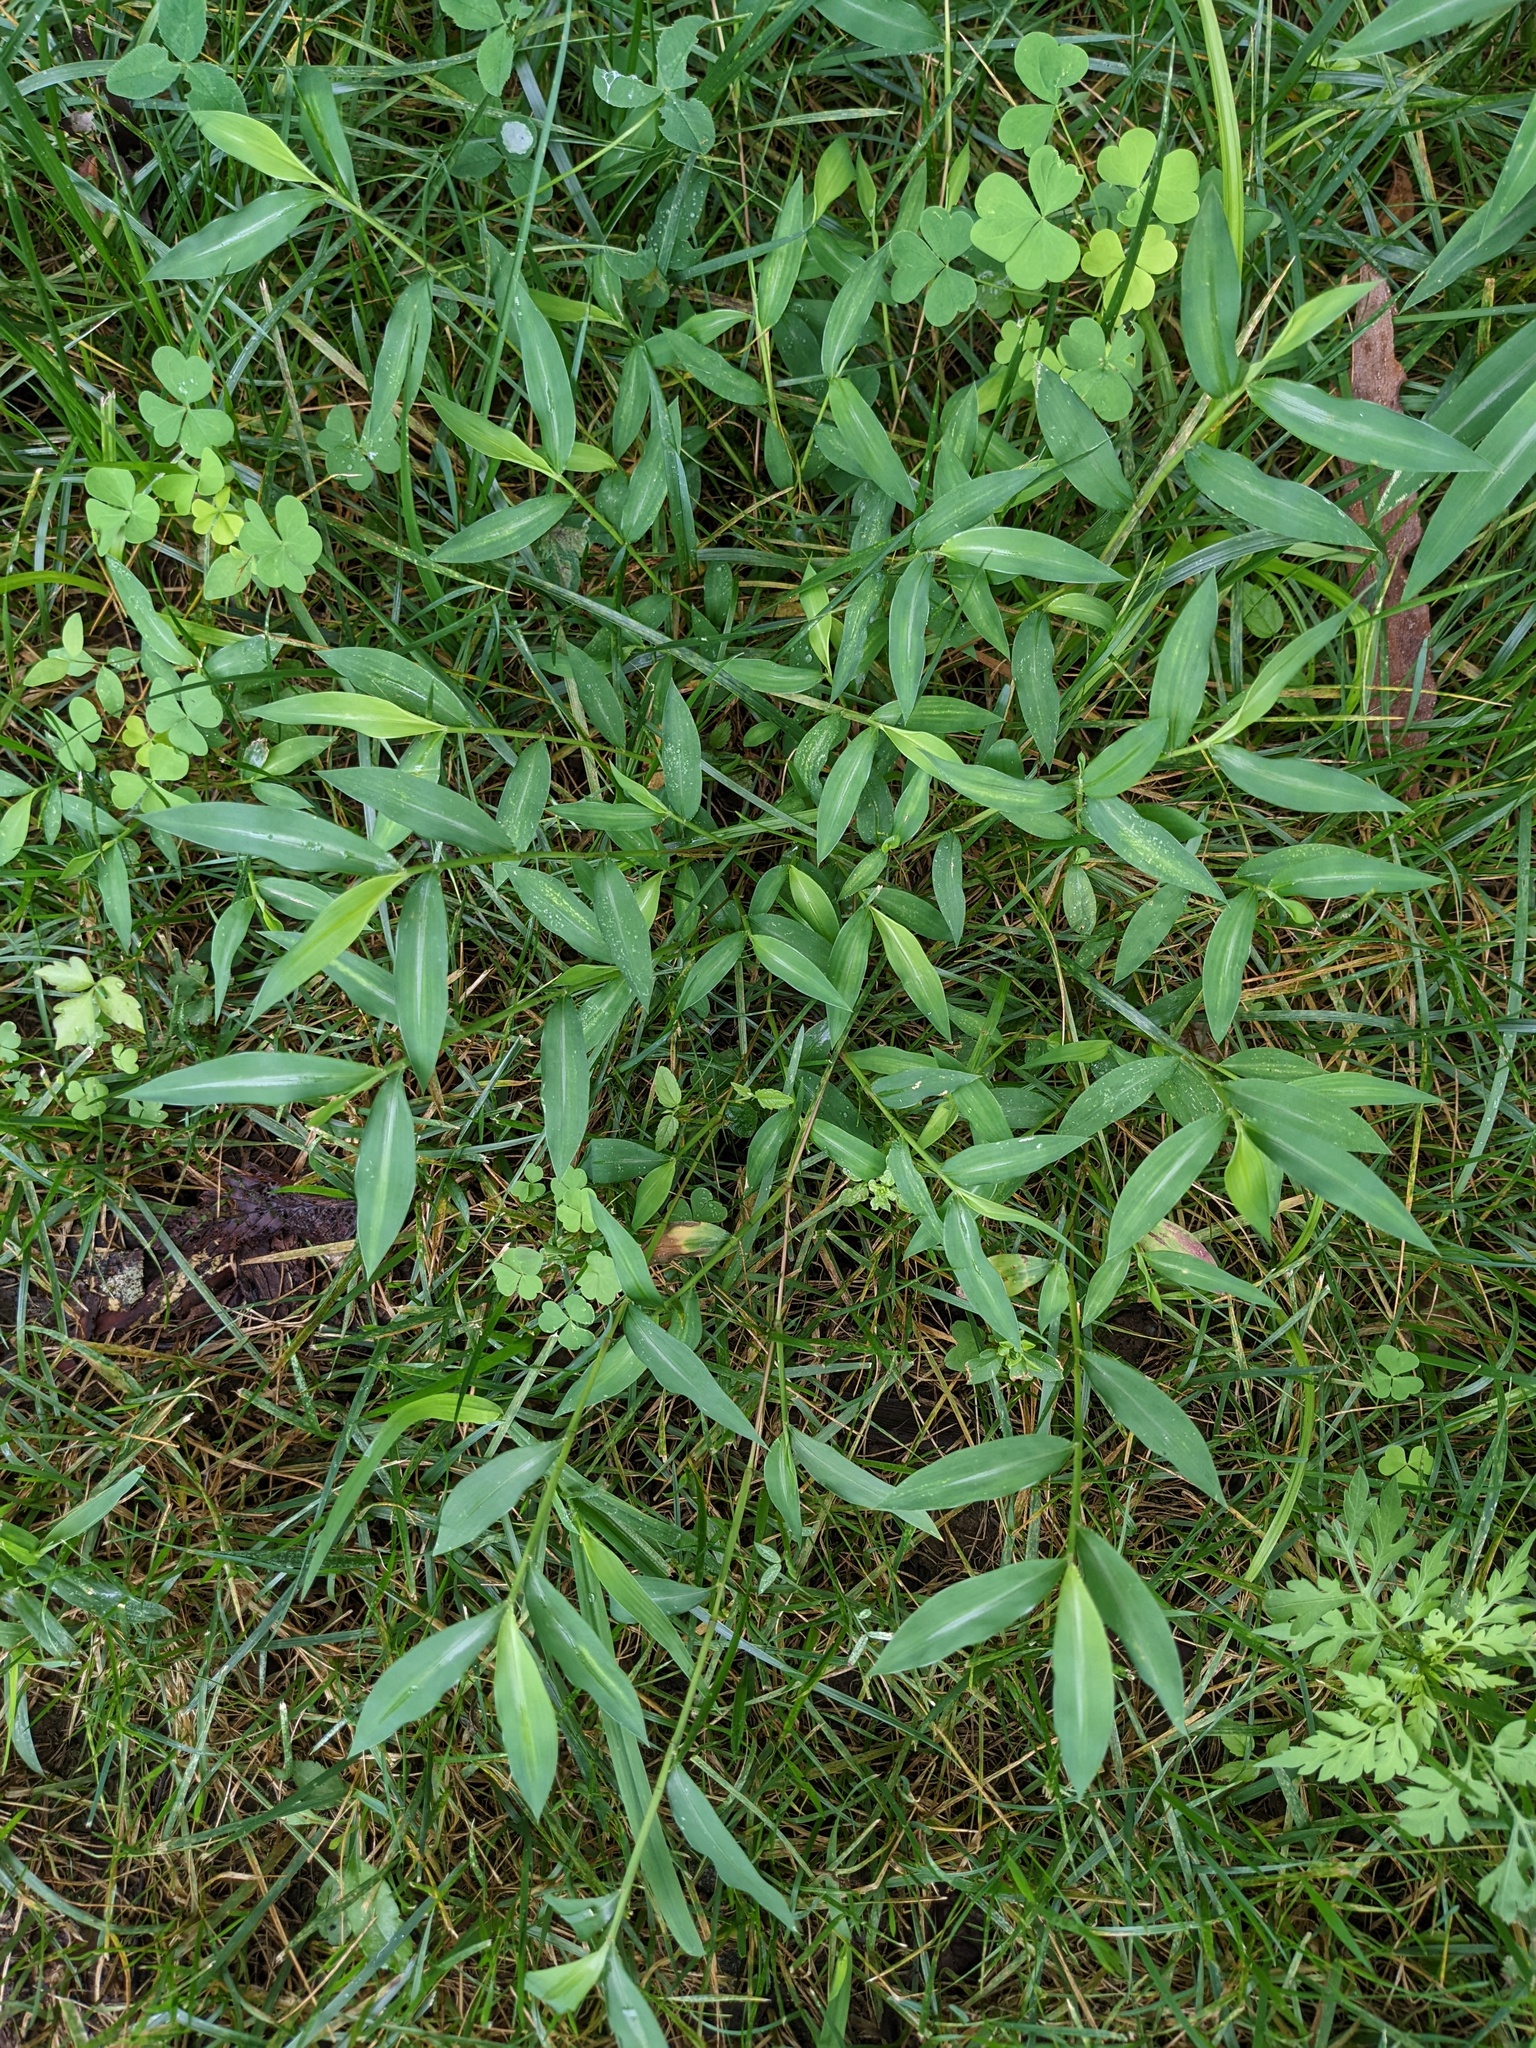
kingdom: Plantae
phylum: Tracheophyta
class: Liliopsida
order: Poales
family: Poaceae
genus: Microstegium
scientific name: Microstegium vimineum
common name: Japanese stiltgrass
